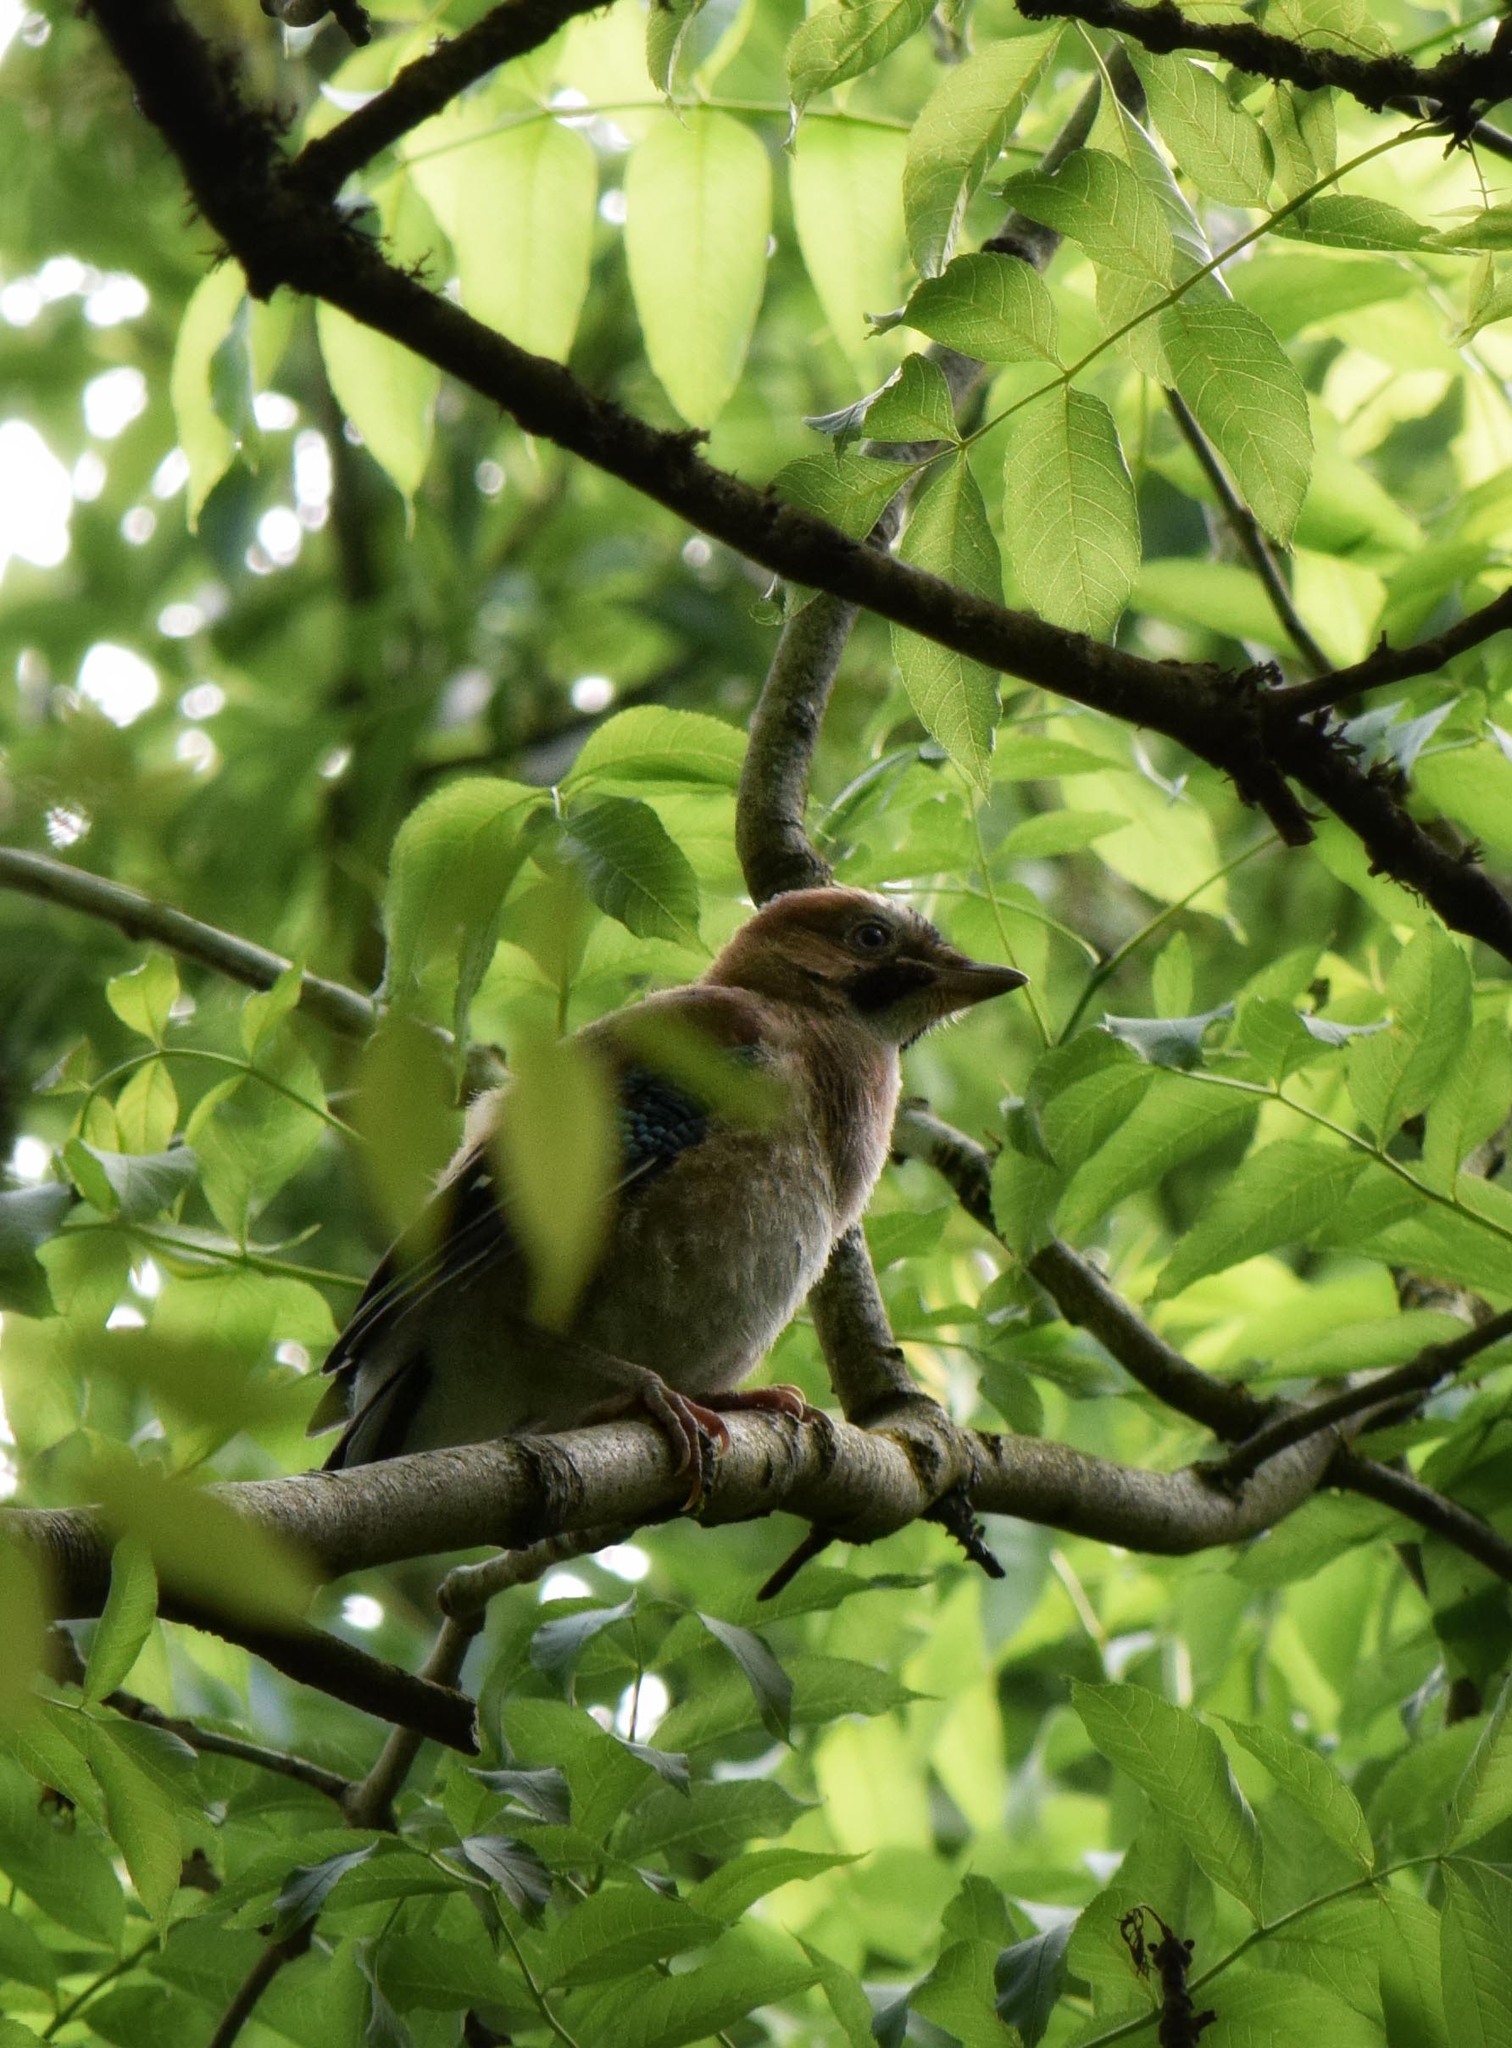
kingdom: Animalia
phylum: Chordata
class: Aves
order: Passeriformes
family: Corvidae
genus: Garrulus
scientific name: Garrulus glandarius
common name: Eurasian jay
